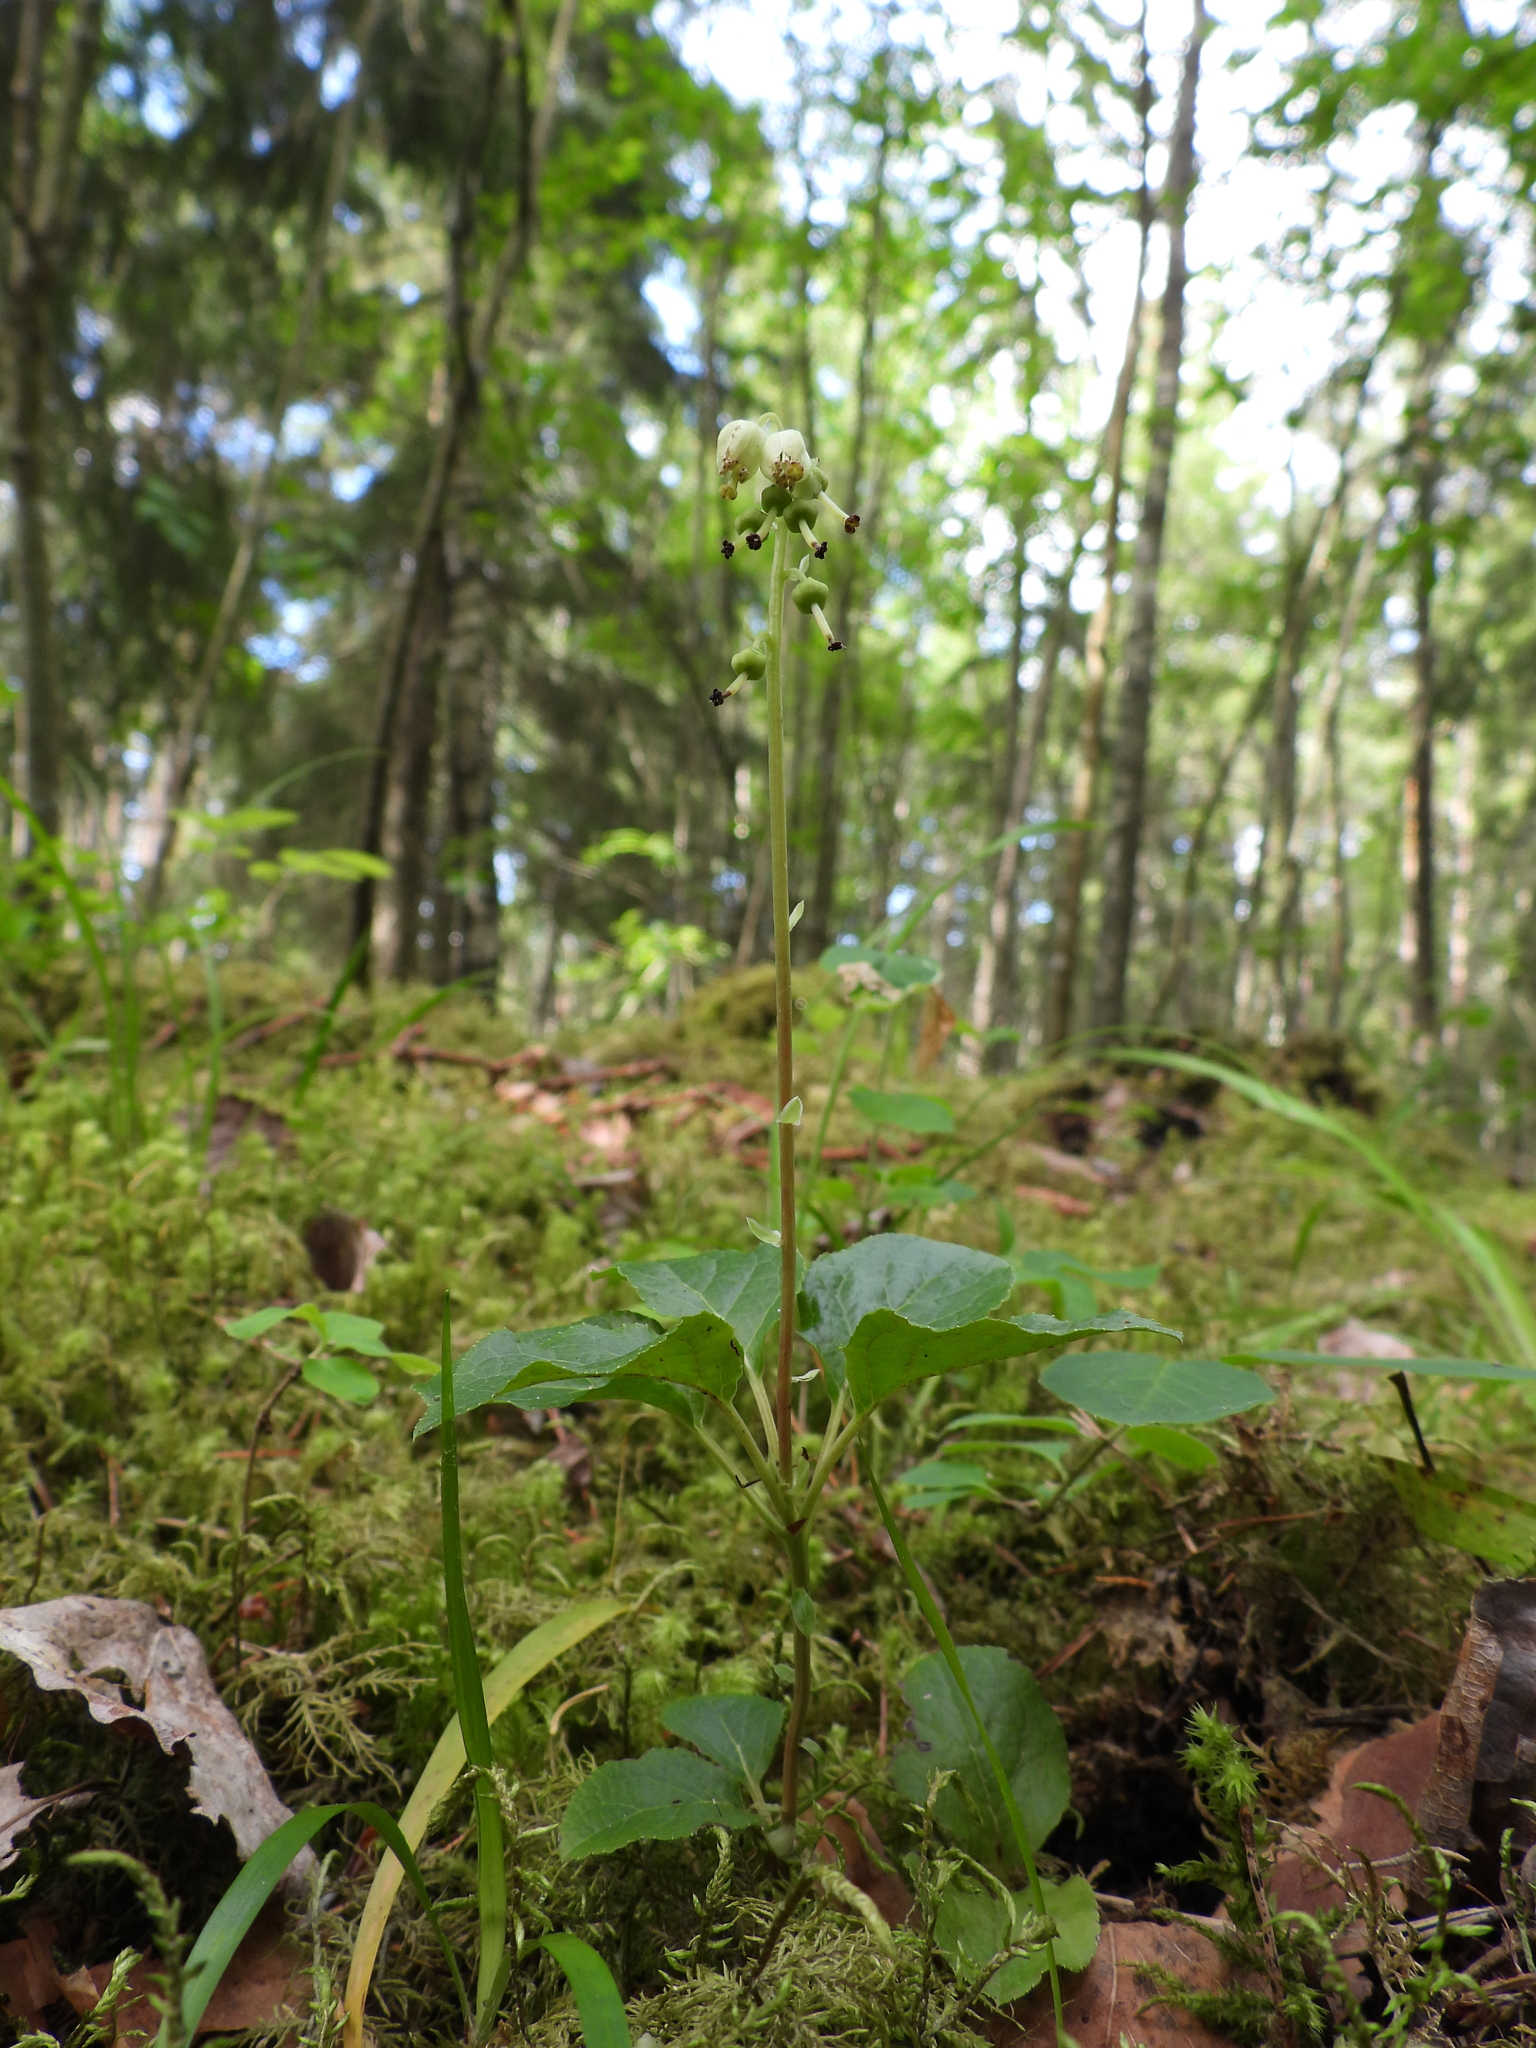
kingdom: Plantae
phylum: Tracheophyta
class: Magnoliopsida
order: Ericales
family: Ericaceae
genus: Orthilia
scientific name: Orthilia secunda
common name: One-sided orthilia
